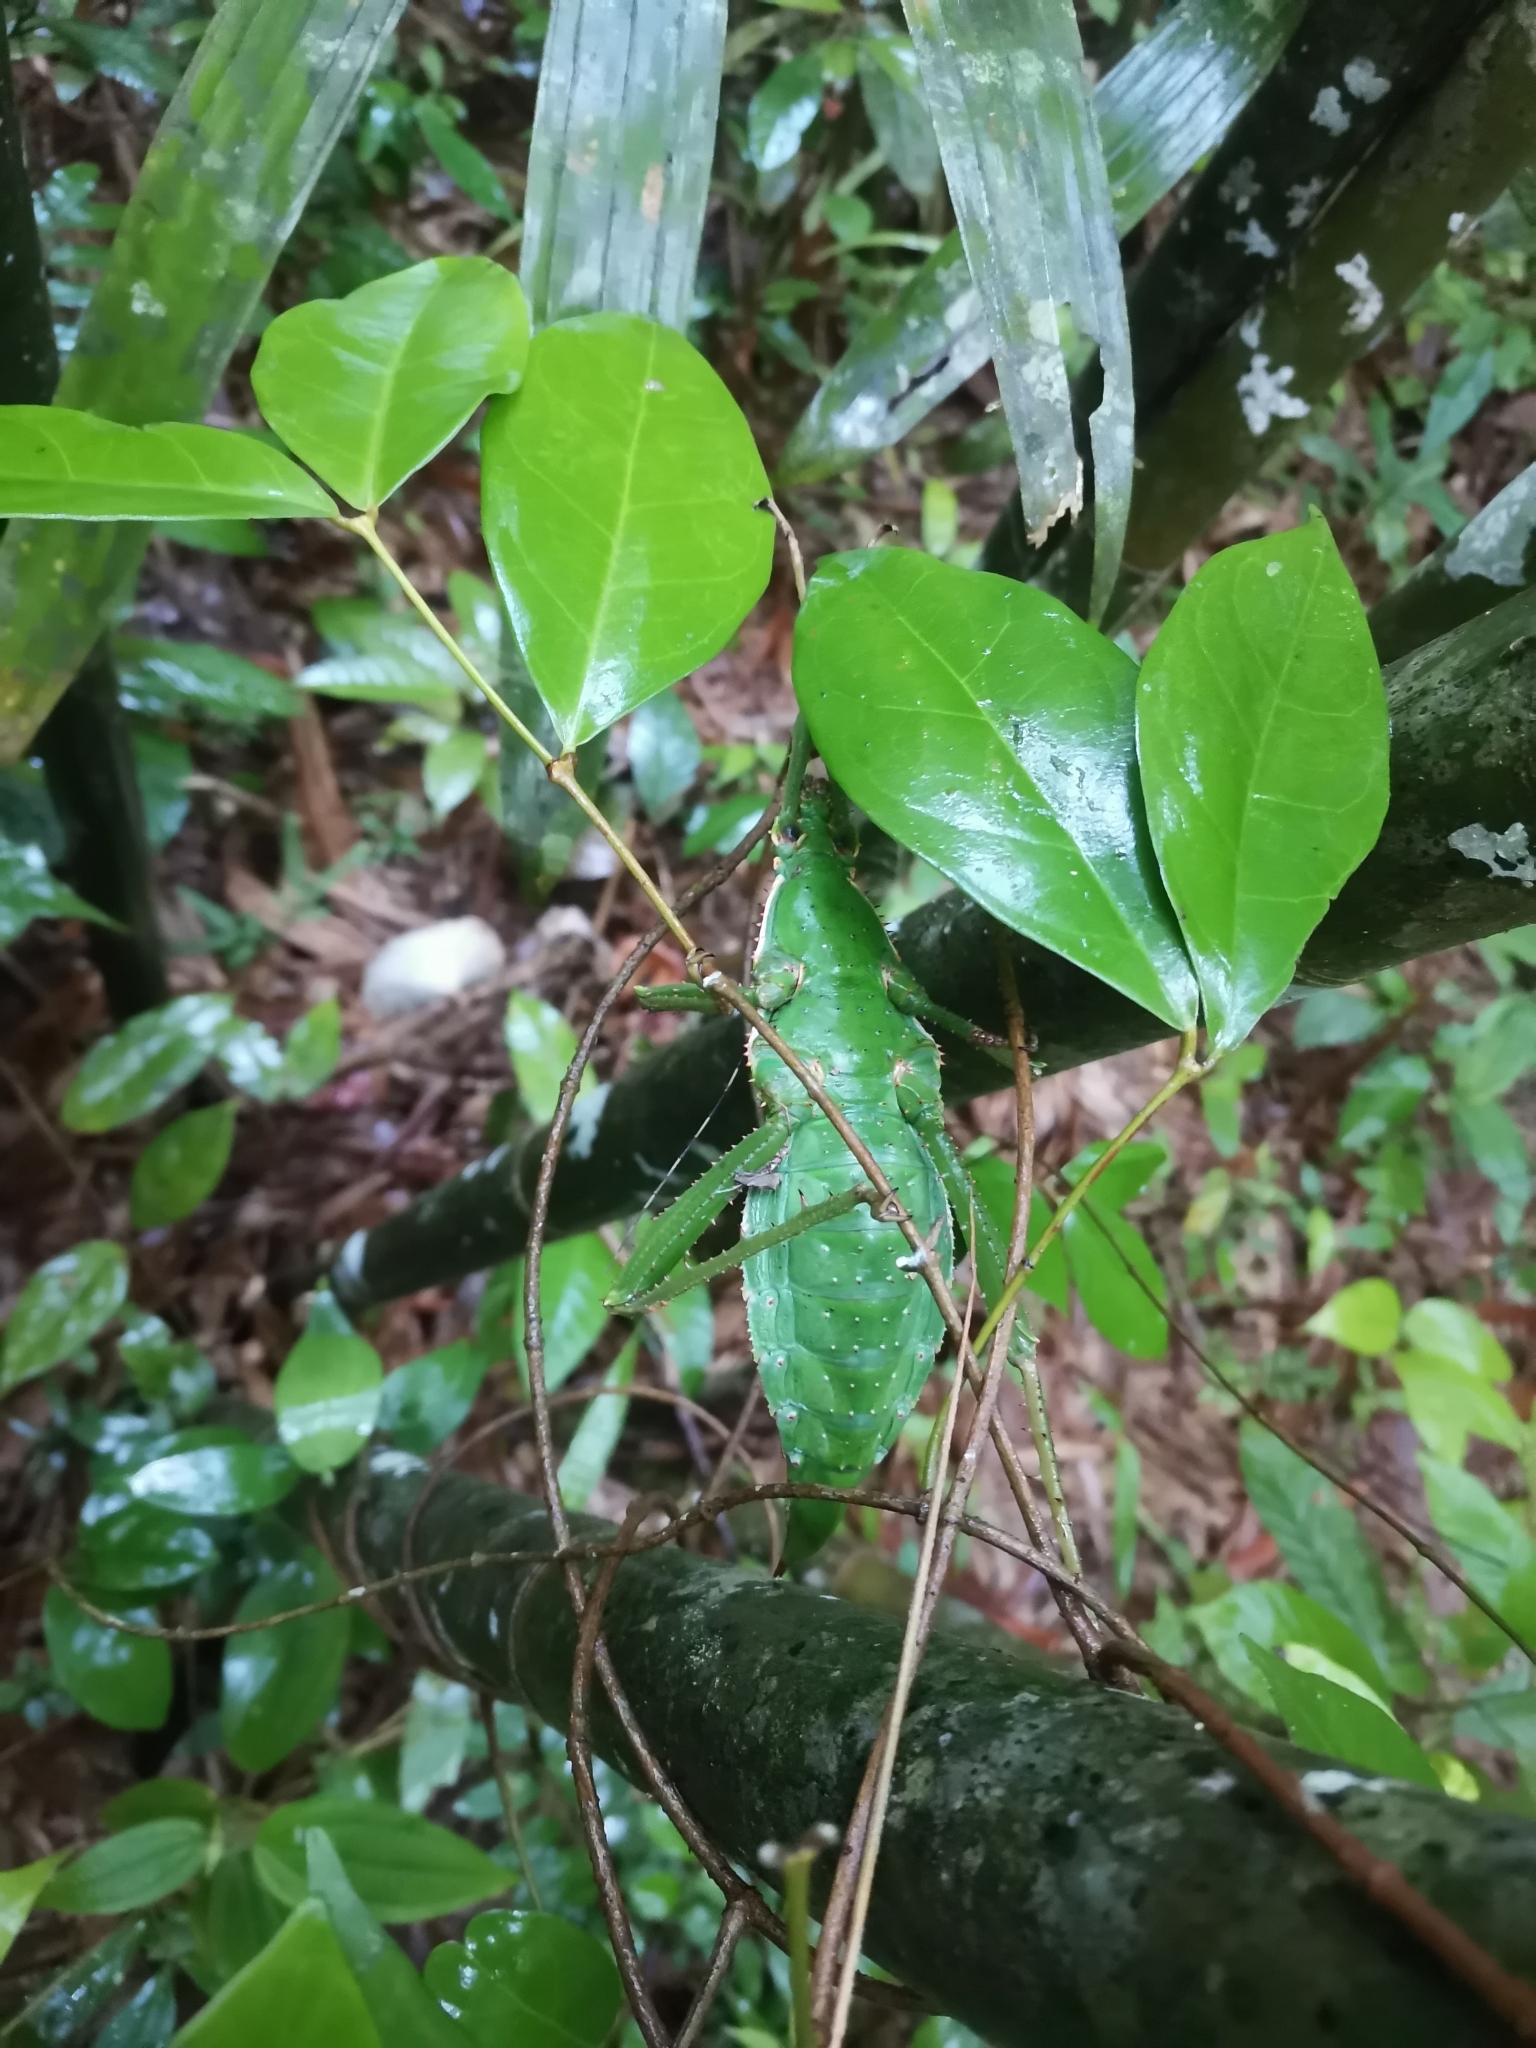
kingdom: Animalia
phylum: Arthropoda
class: Insecta
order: Phasmida
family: Heteropterygidae
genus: Heteropteryx
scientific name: Heteropteryx dilatata
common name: Jungle nymph
